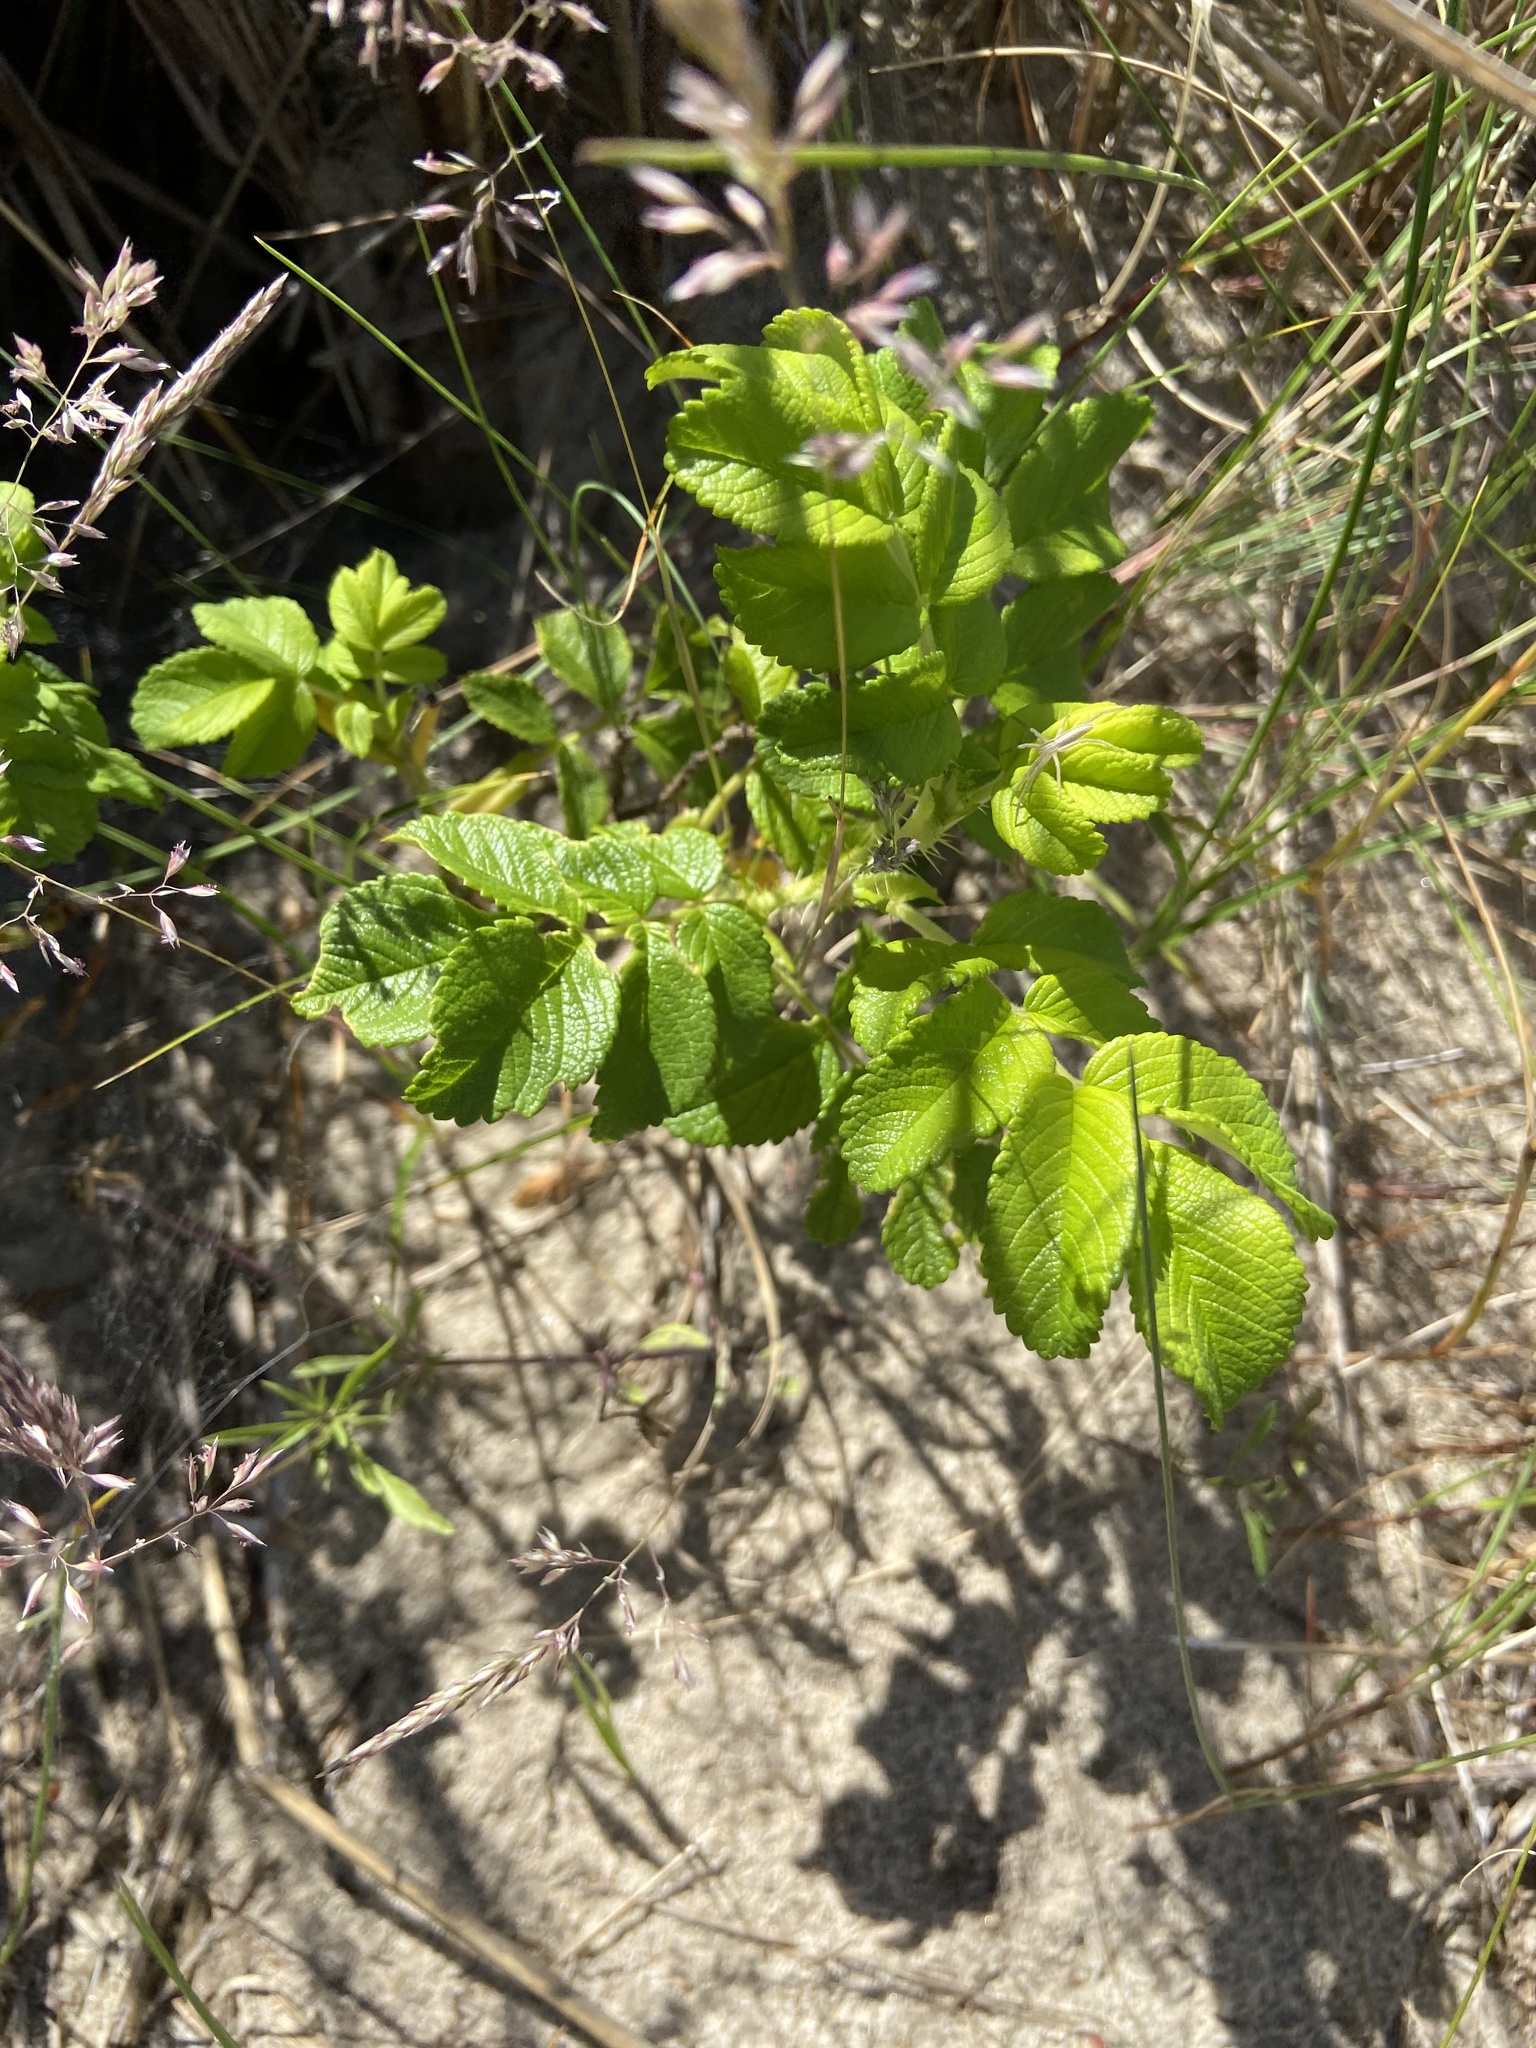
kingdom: Plantae
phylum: Tracheophyta
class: Magnoliopsida
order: Rosales
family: Rosaceae
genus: Rosa
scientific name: Rosa rugosa
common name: Japanese rose
